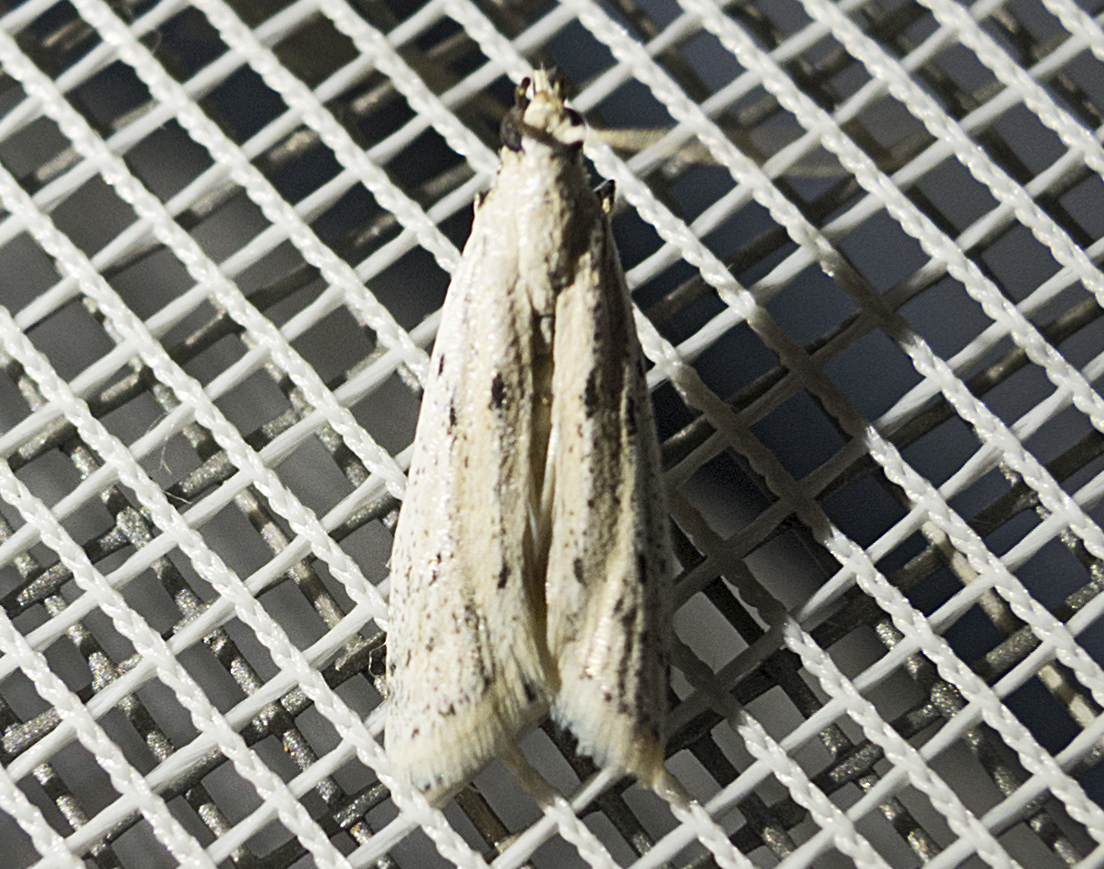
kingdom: Animalia
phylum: Arthropoda
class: Insecta
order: Lepidoptera
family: Pyralidae
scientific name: Pyralidae
